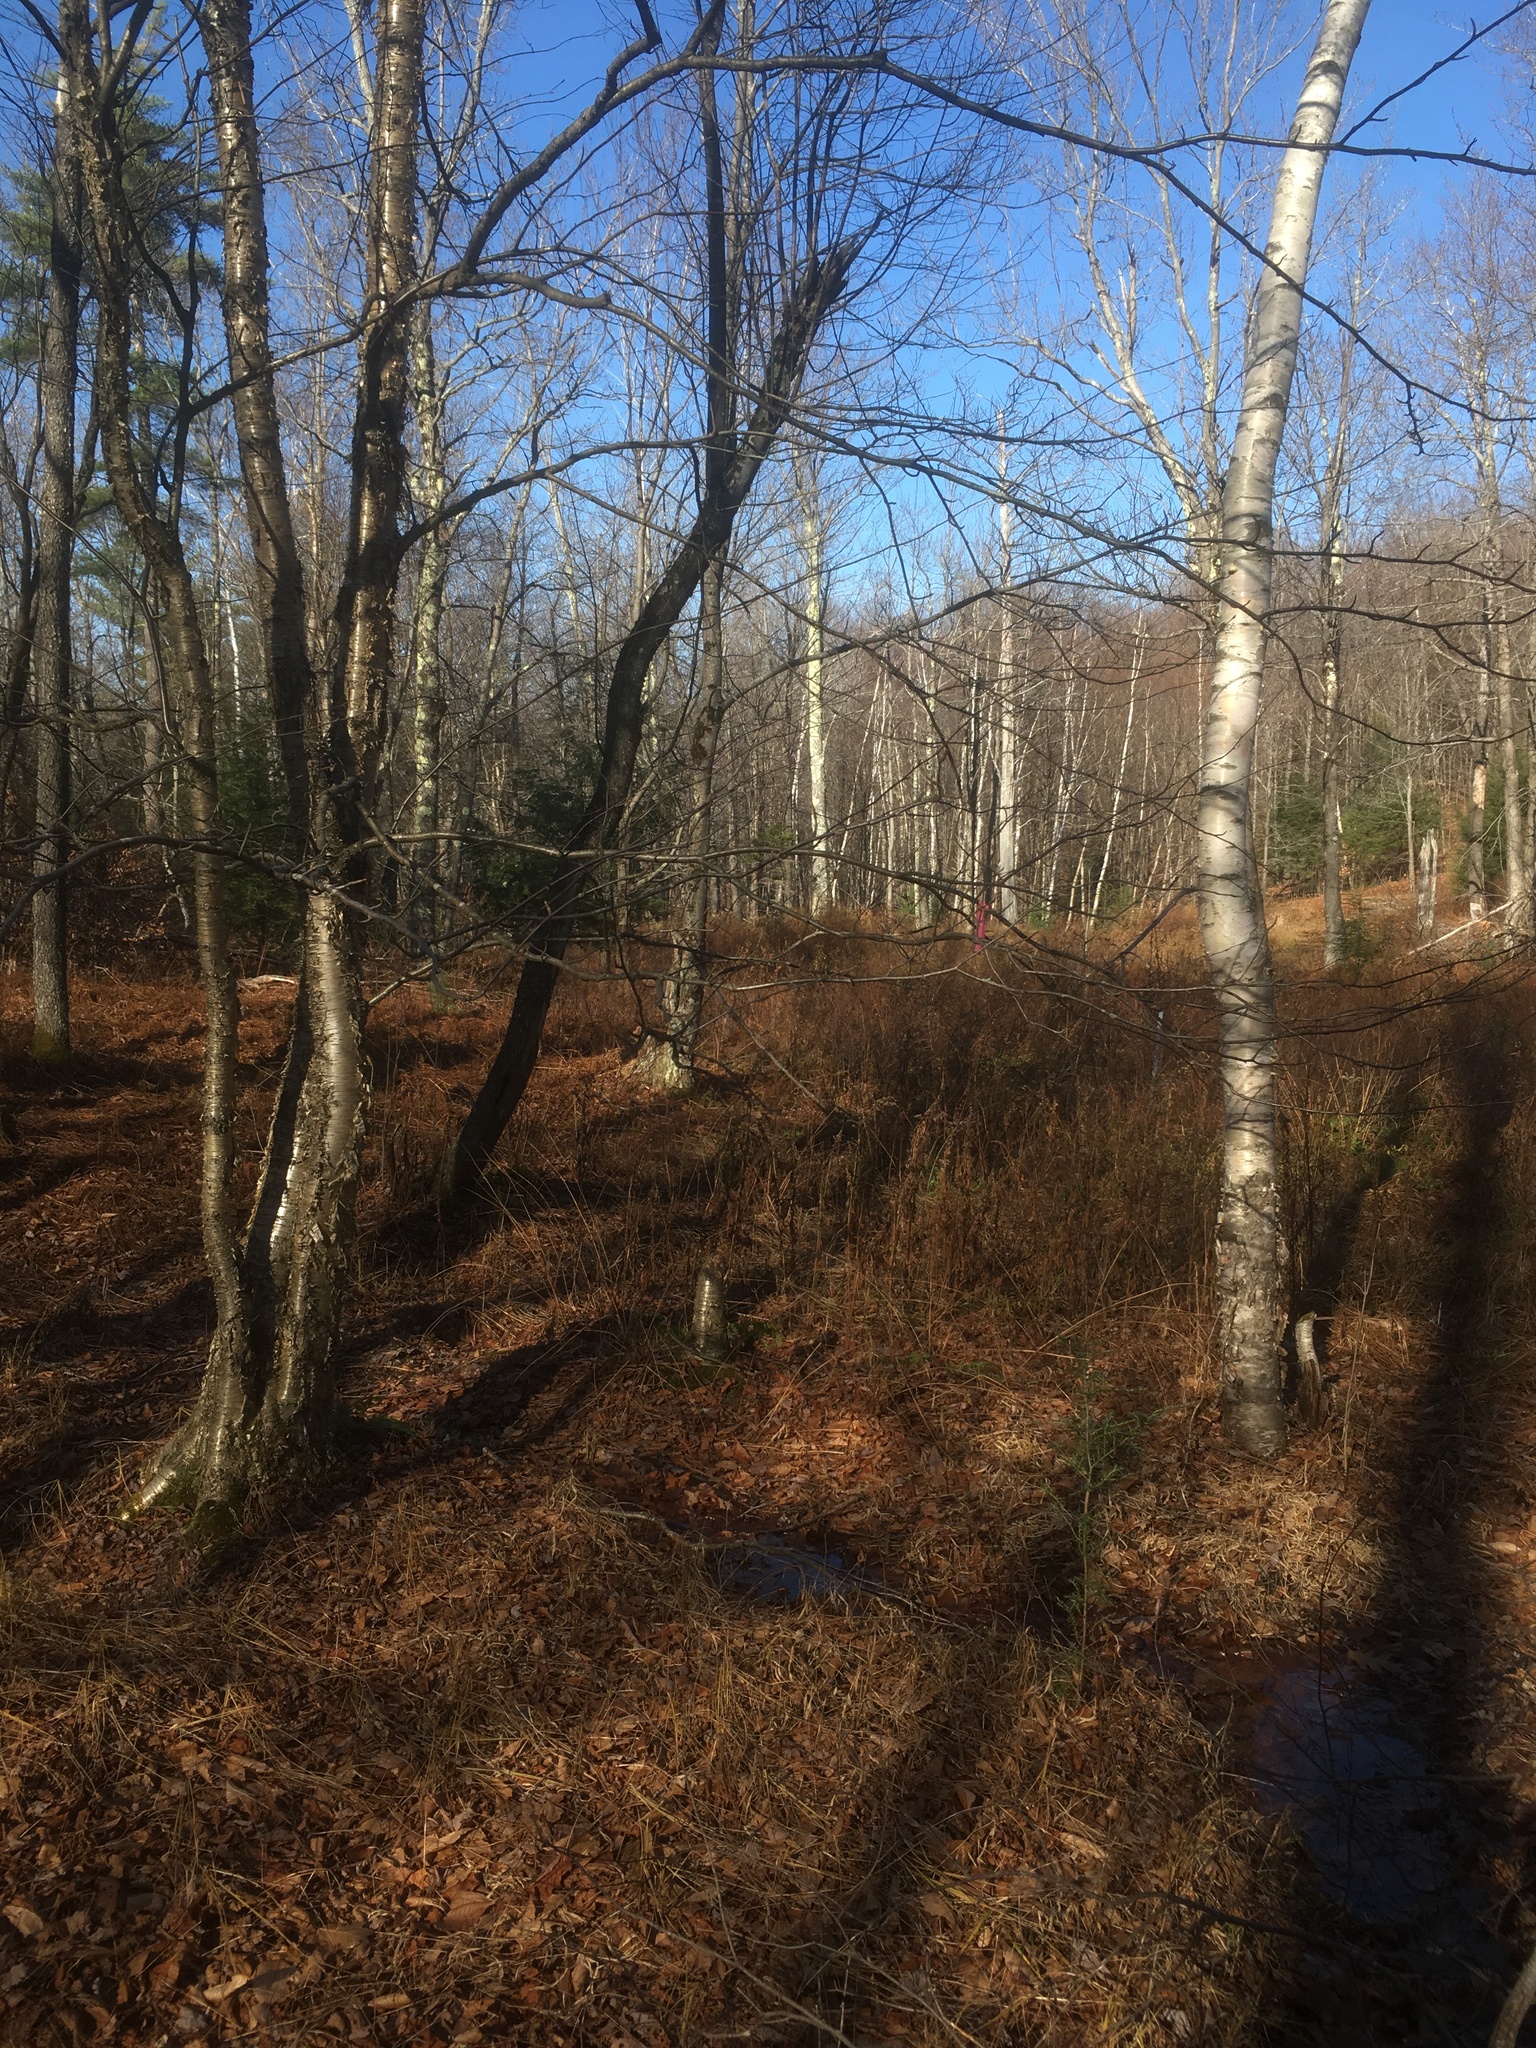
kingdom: Plantae
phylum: Tracheophyta
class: Magnoliopsida
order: Fagales
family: Betulaceae
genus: Betula
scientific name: Betula alleghaniensis
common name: Yellow birch
